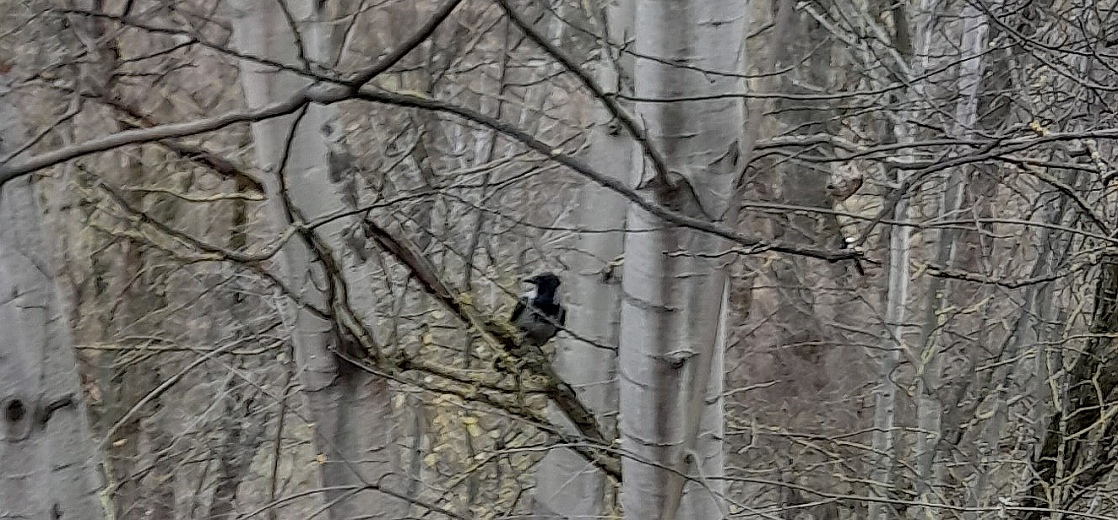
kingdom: Animalia
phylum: Chordata
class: Aves
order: Passeriformes
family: Corvidae
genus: Corvus
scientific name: Corvus cornix
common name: Hooded crow
